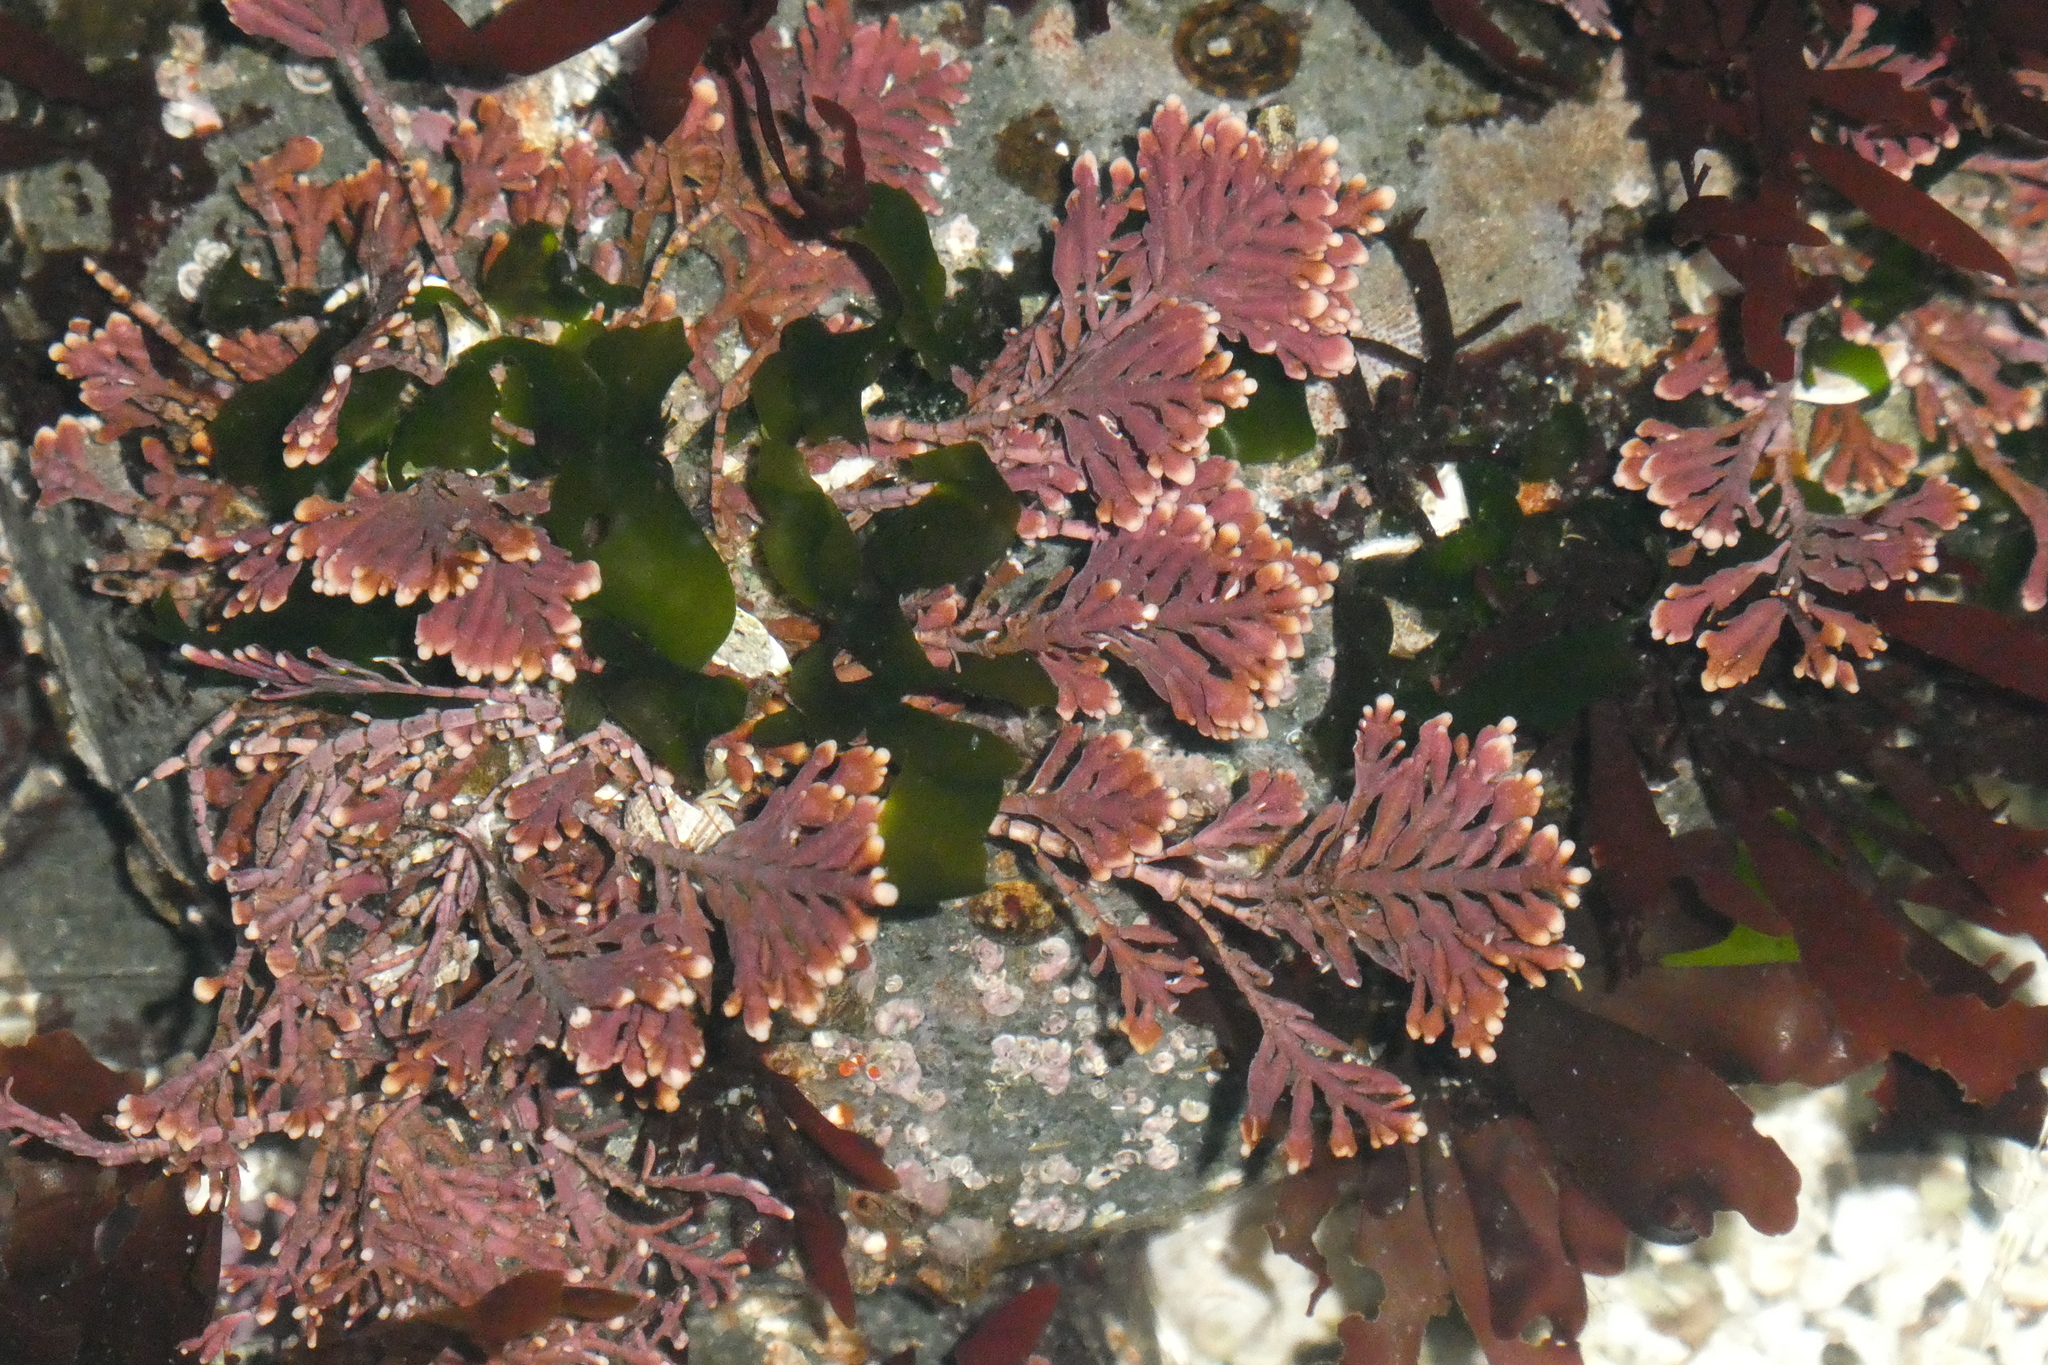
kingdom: Plantae
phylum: Rhodophyta
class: Florideophyceae
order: Corallinales
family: Corallinaceae
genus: Corallina
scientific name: Corallina officinalis
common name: Coral weed
